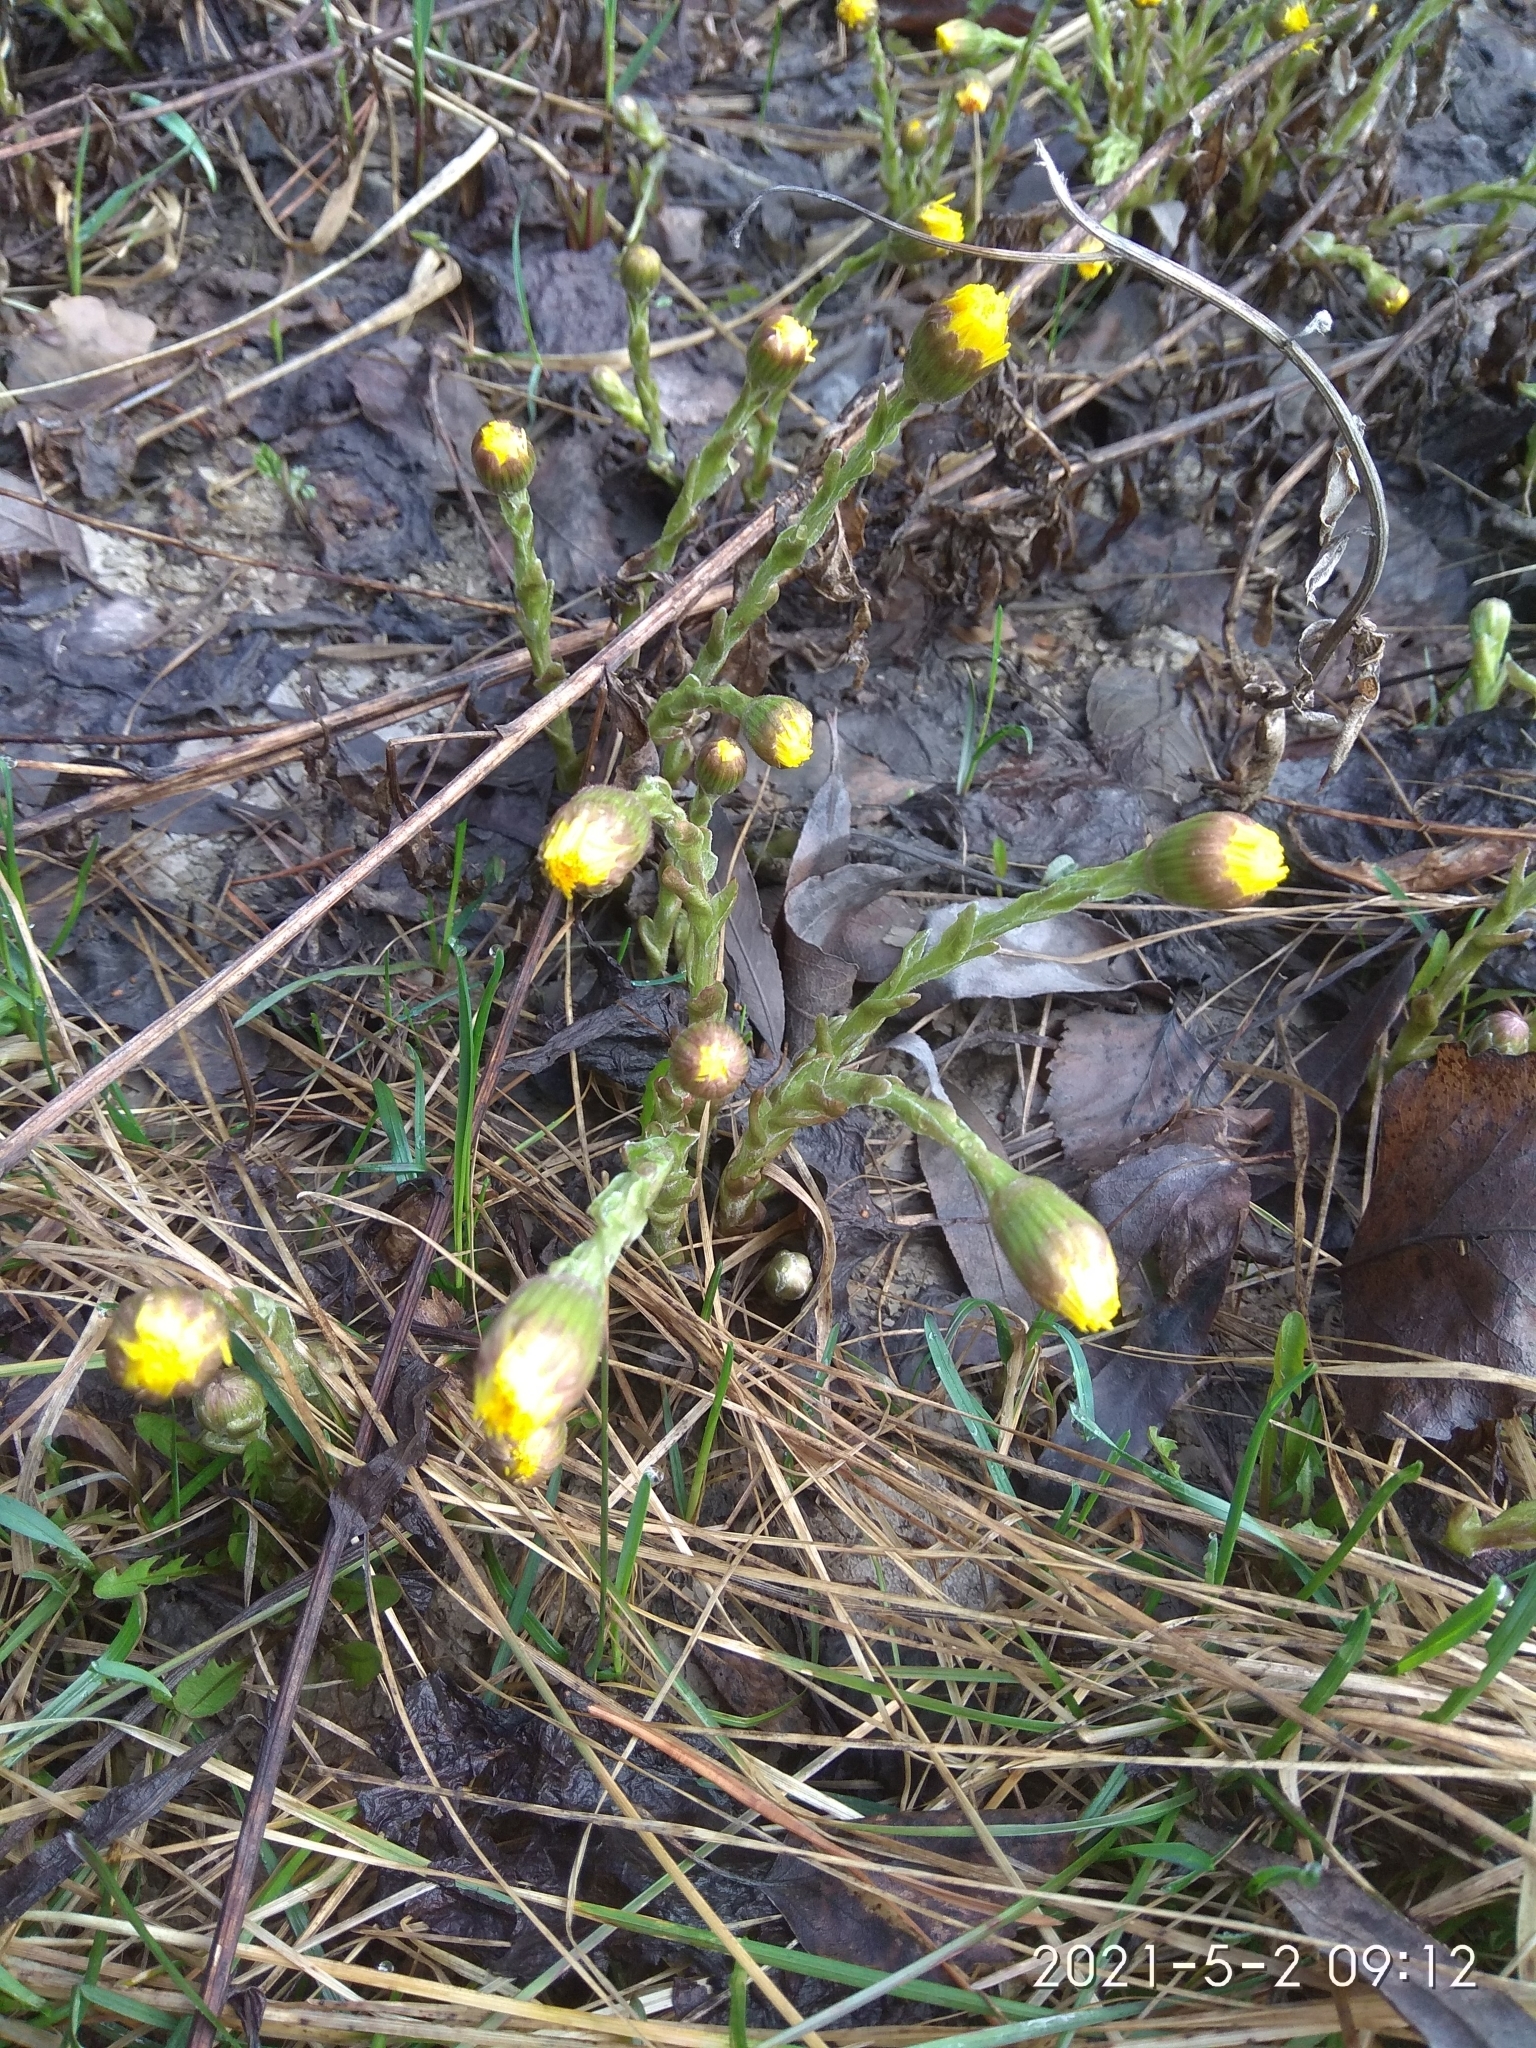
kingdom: Plantae
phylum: Tracheophyta
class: Magnoliopsida
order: Asterales
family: Asteraceae
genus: Tussilago
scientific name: Tussilago farfara
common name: Coltsfoot
